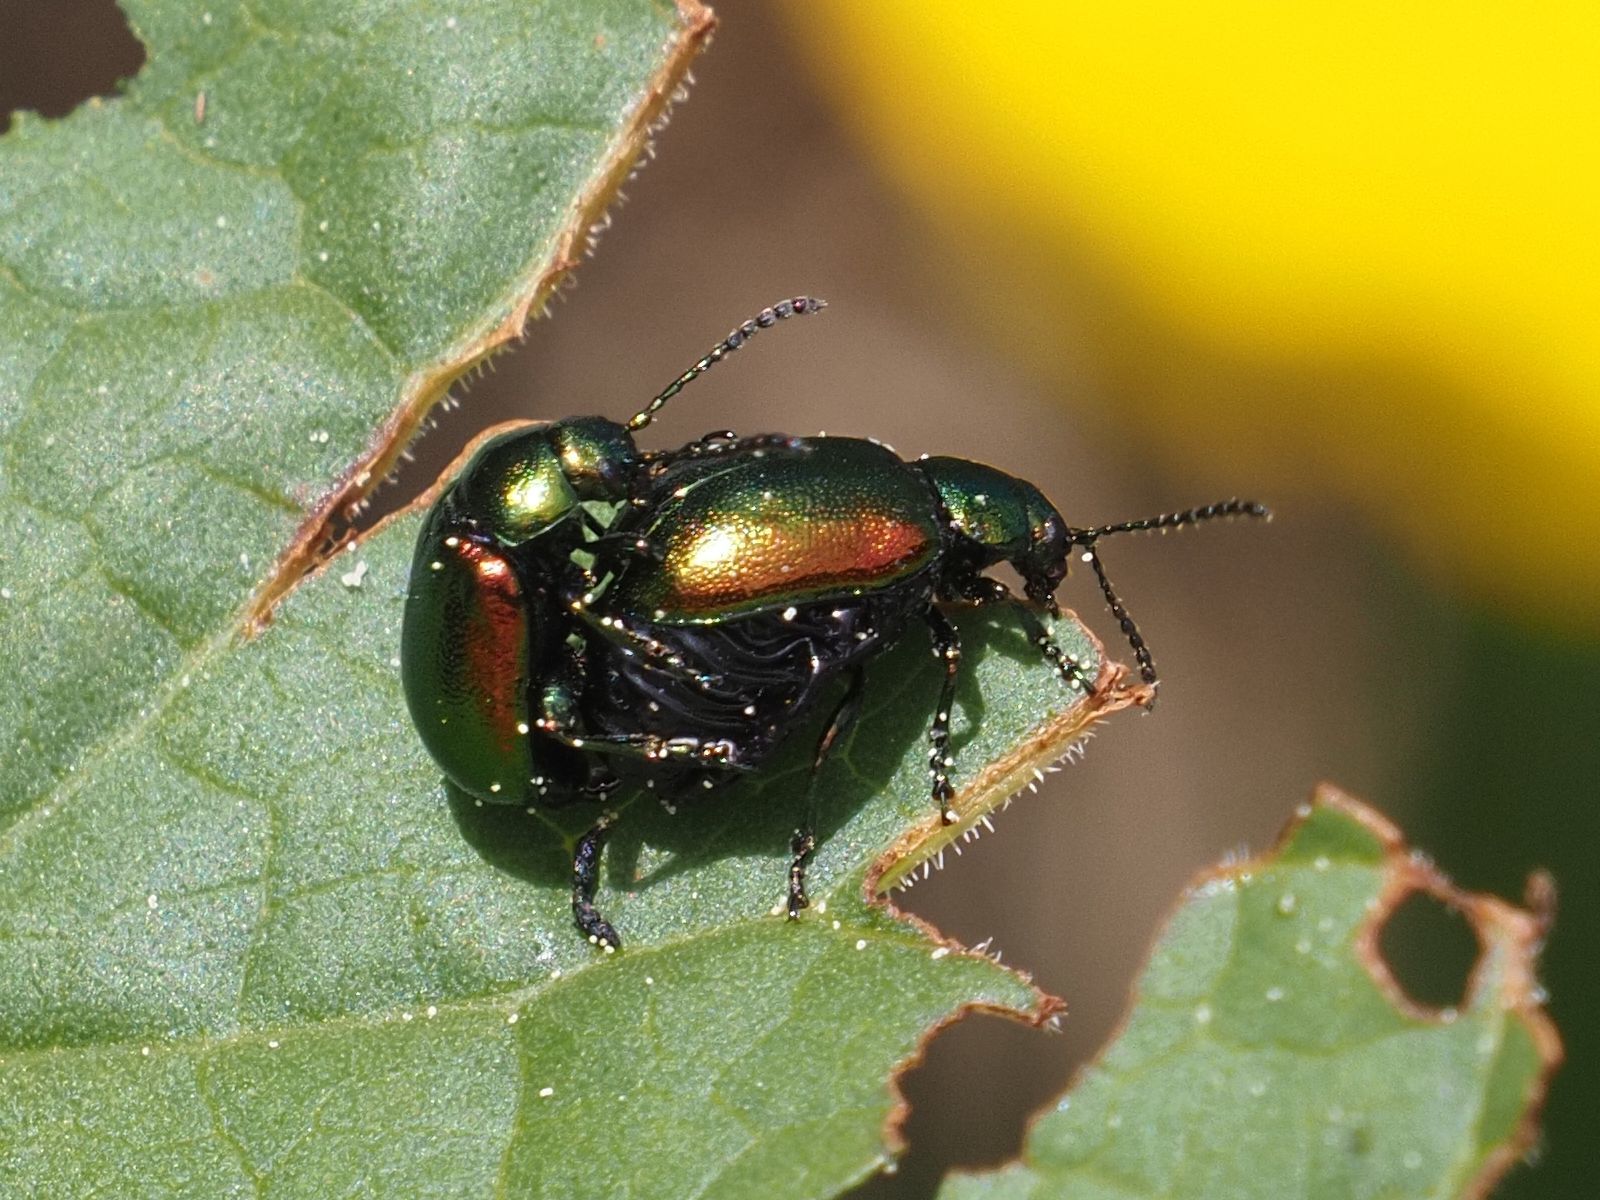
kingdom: Animalia
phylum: Arthropoda
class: Insecta
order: Coleoptera
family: Chrysomelidae
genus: Gastrophysa
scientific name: Gastrophysa viridula
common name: Green dock beetle
